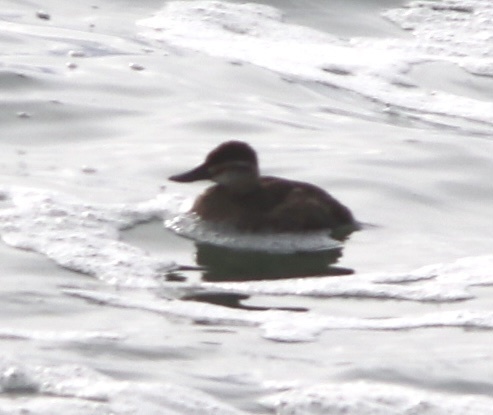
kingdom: Animalia
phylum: Chordata
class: Aves
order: Anseriformes
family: Anatidae
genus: Oxyura
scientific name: Oxyura jamaicensis
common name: Ruddy duck
